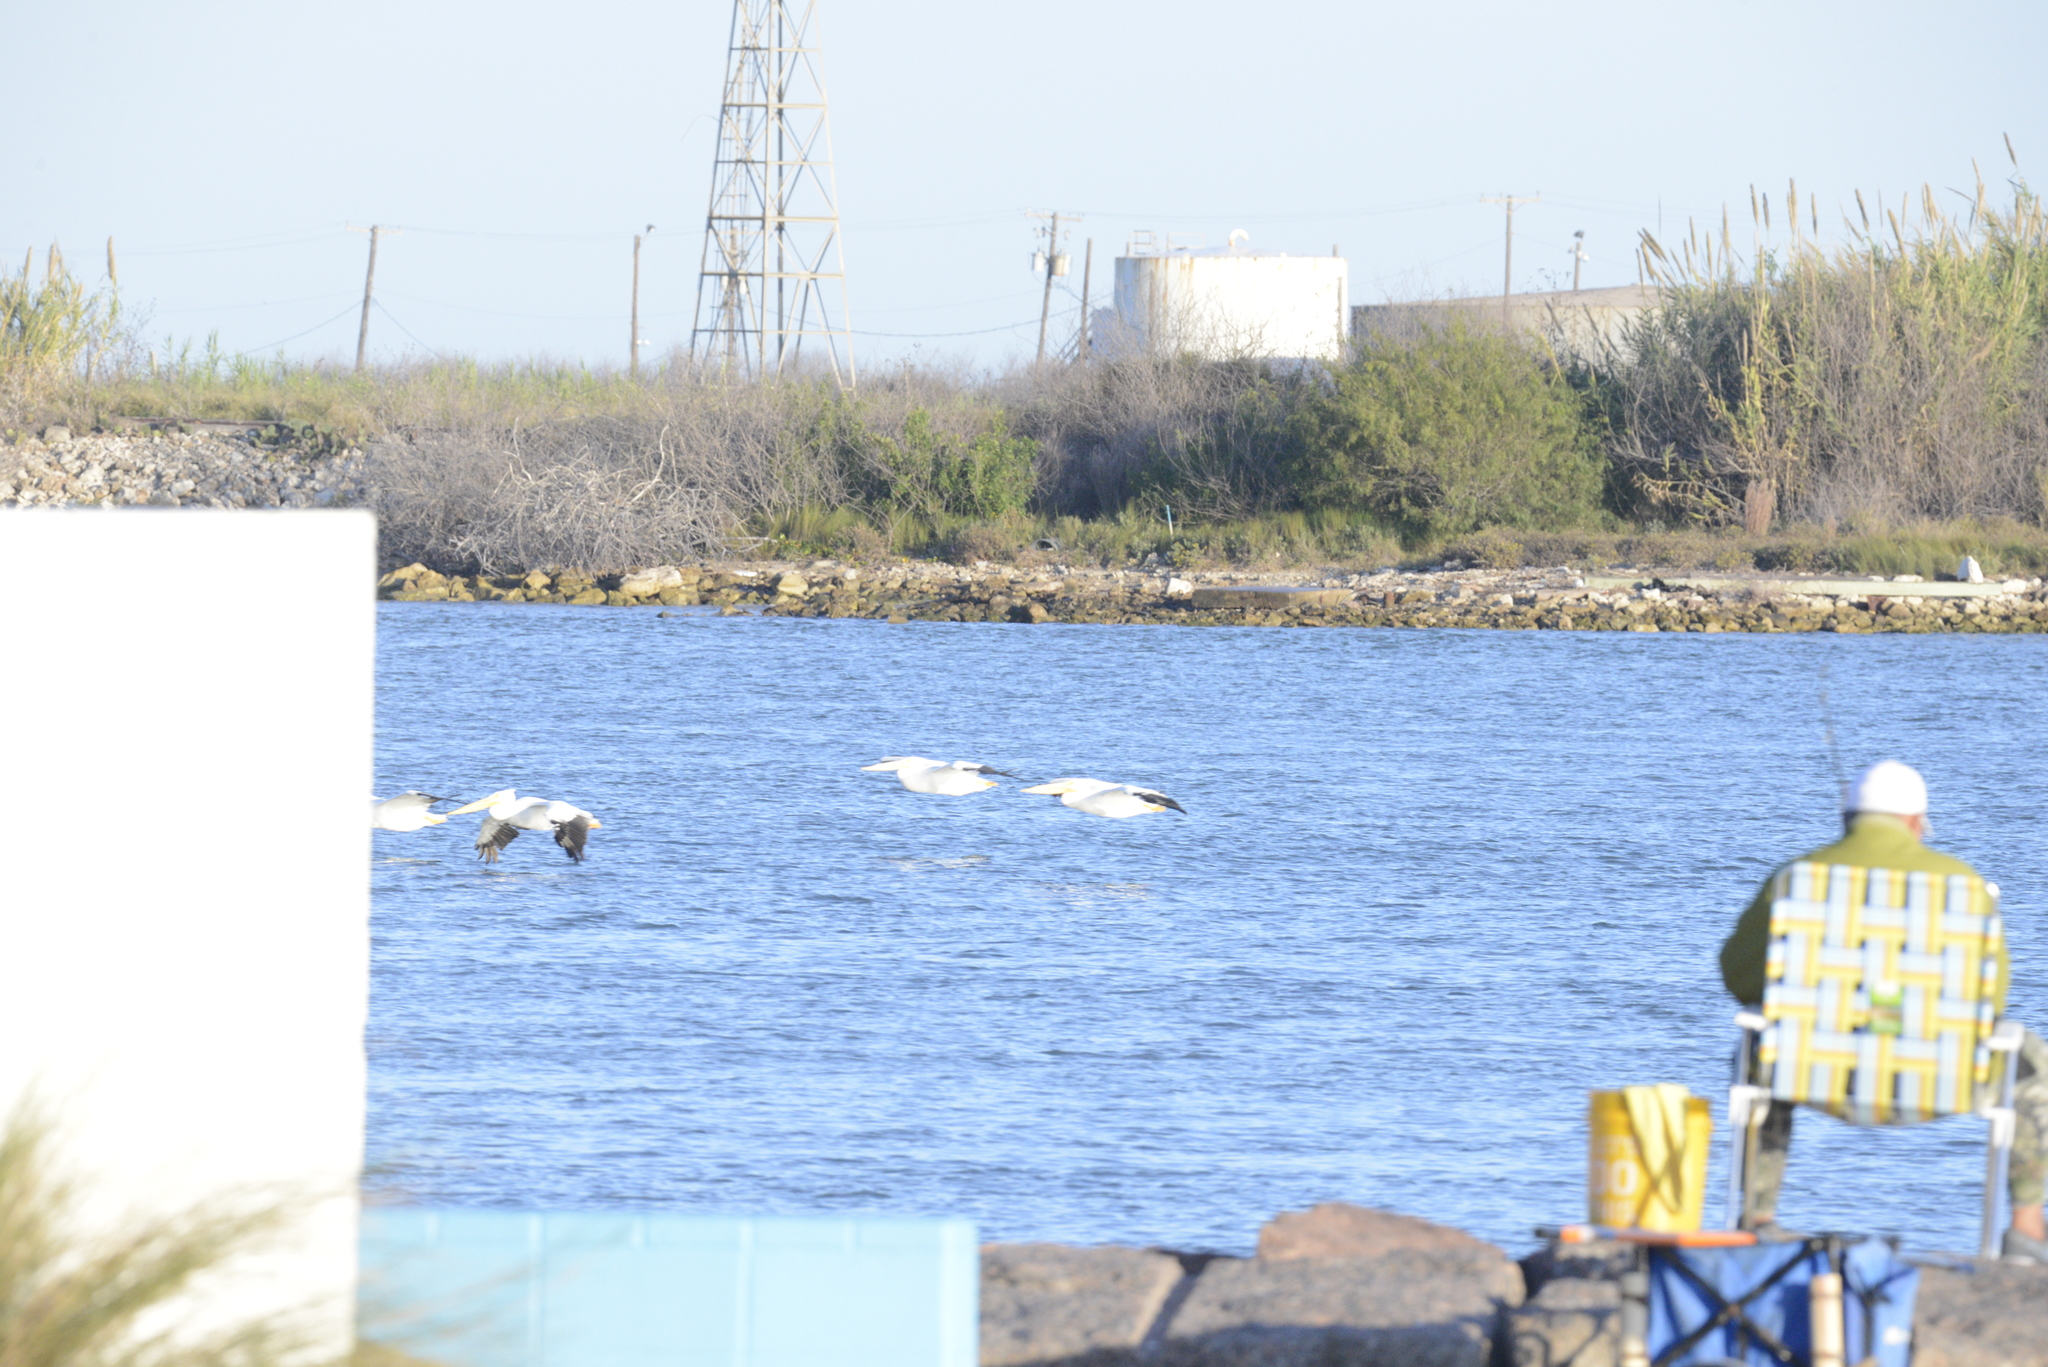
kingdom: Animalia
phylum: Chordata
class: Aves
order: Pelecaniformes
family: Pelecanidae
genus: Pelecanus
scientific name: Pelecanus erythrorhynchos
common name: American white pelican
